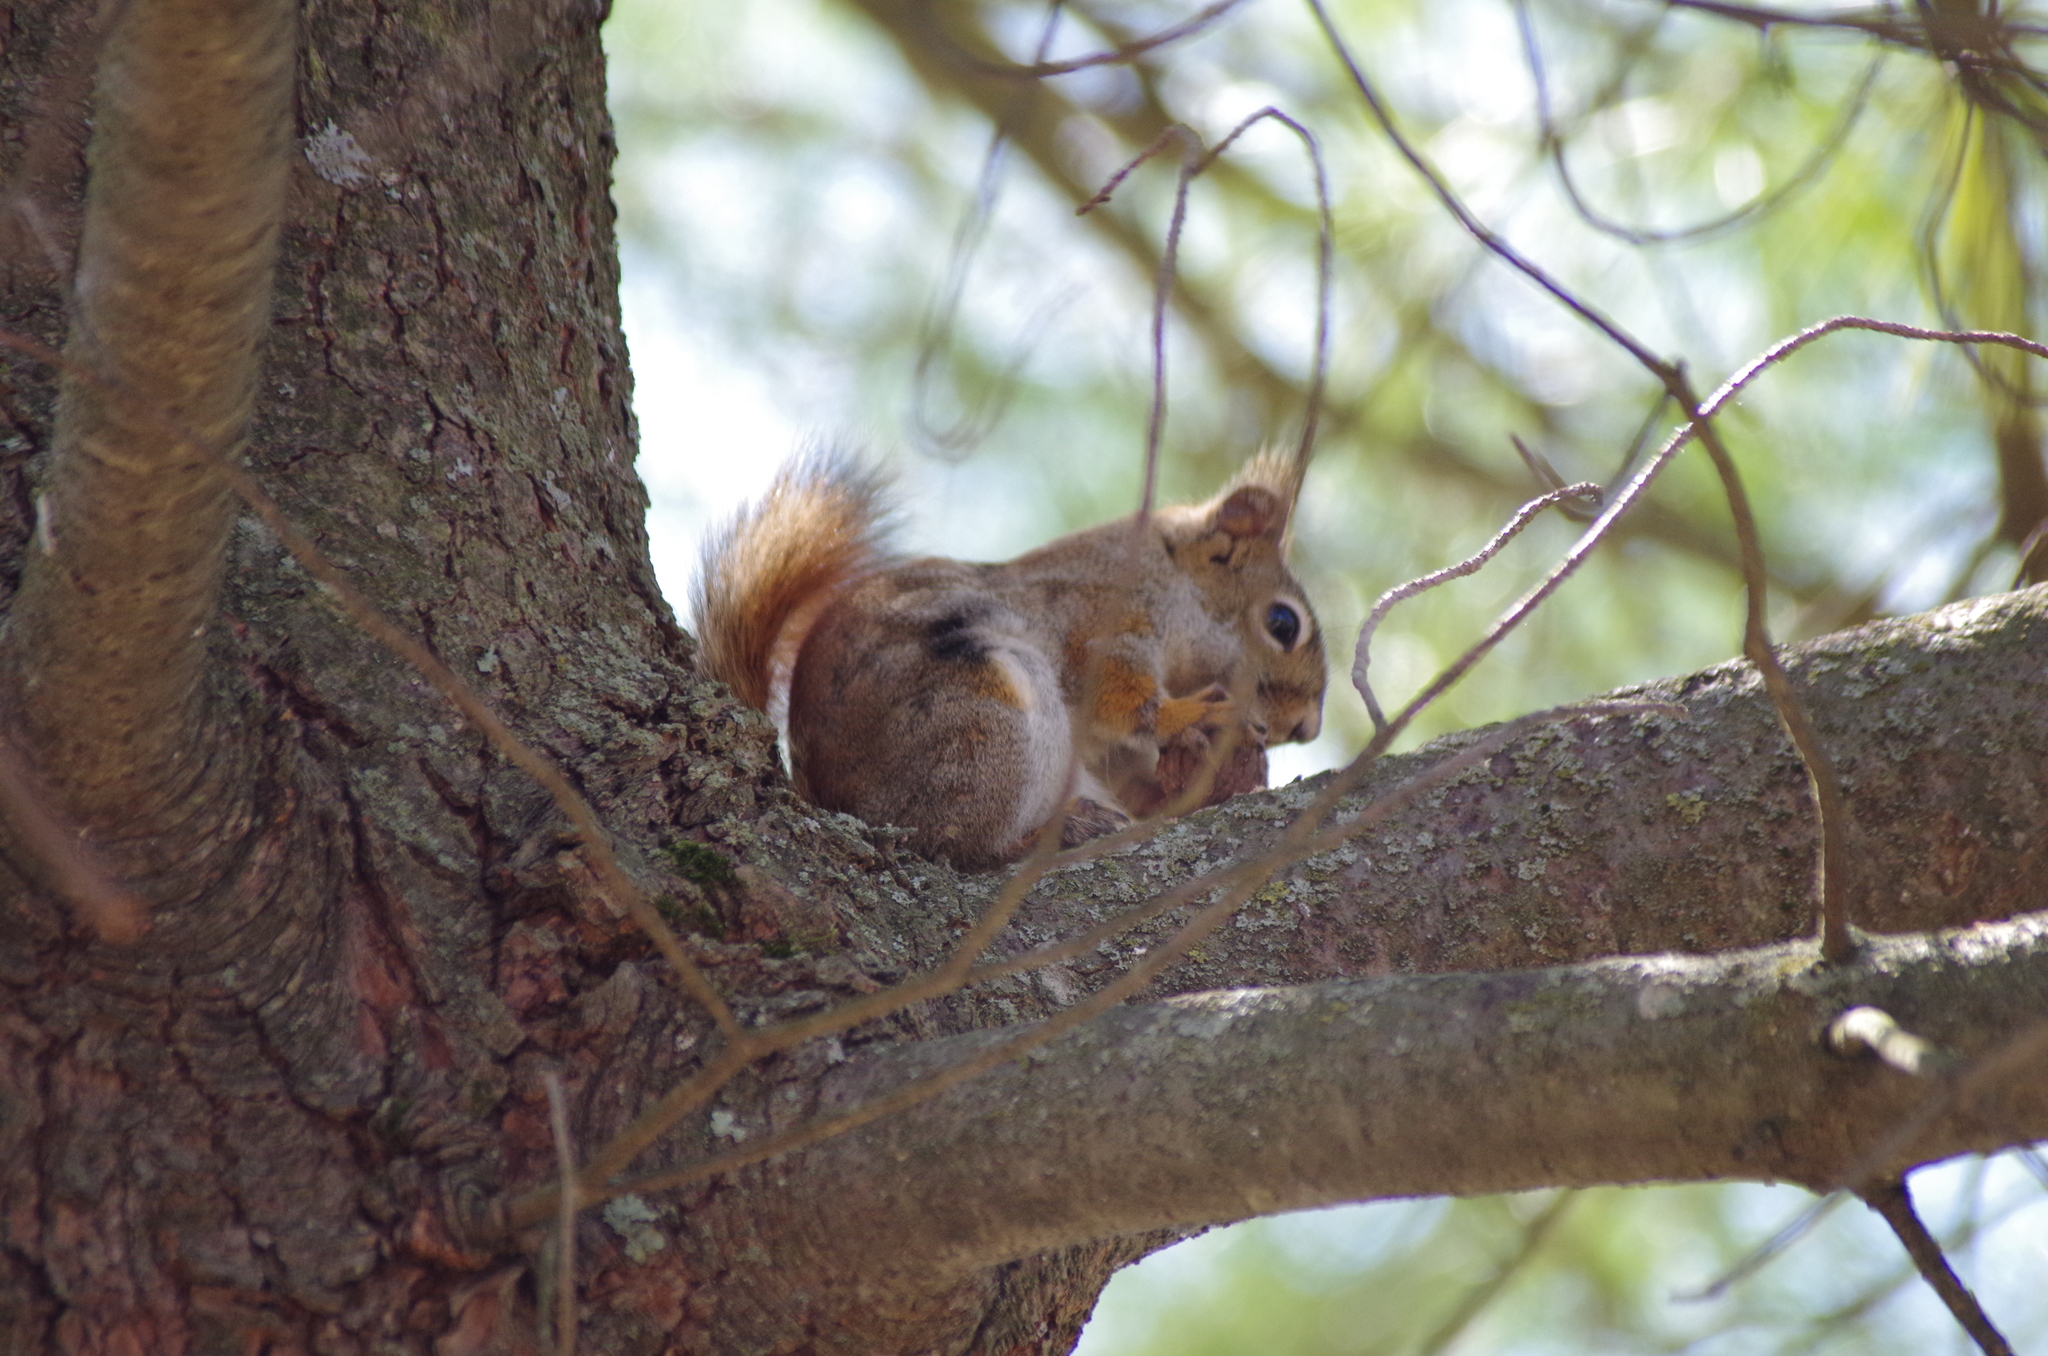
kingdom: Animalia
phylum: Chordata
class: Mammalia
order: Rodentia
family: Sciuridae
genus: Tamiasciurus
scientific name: Tamiasciurus hudsonicus
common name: Red squirrel
